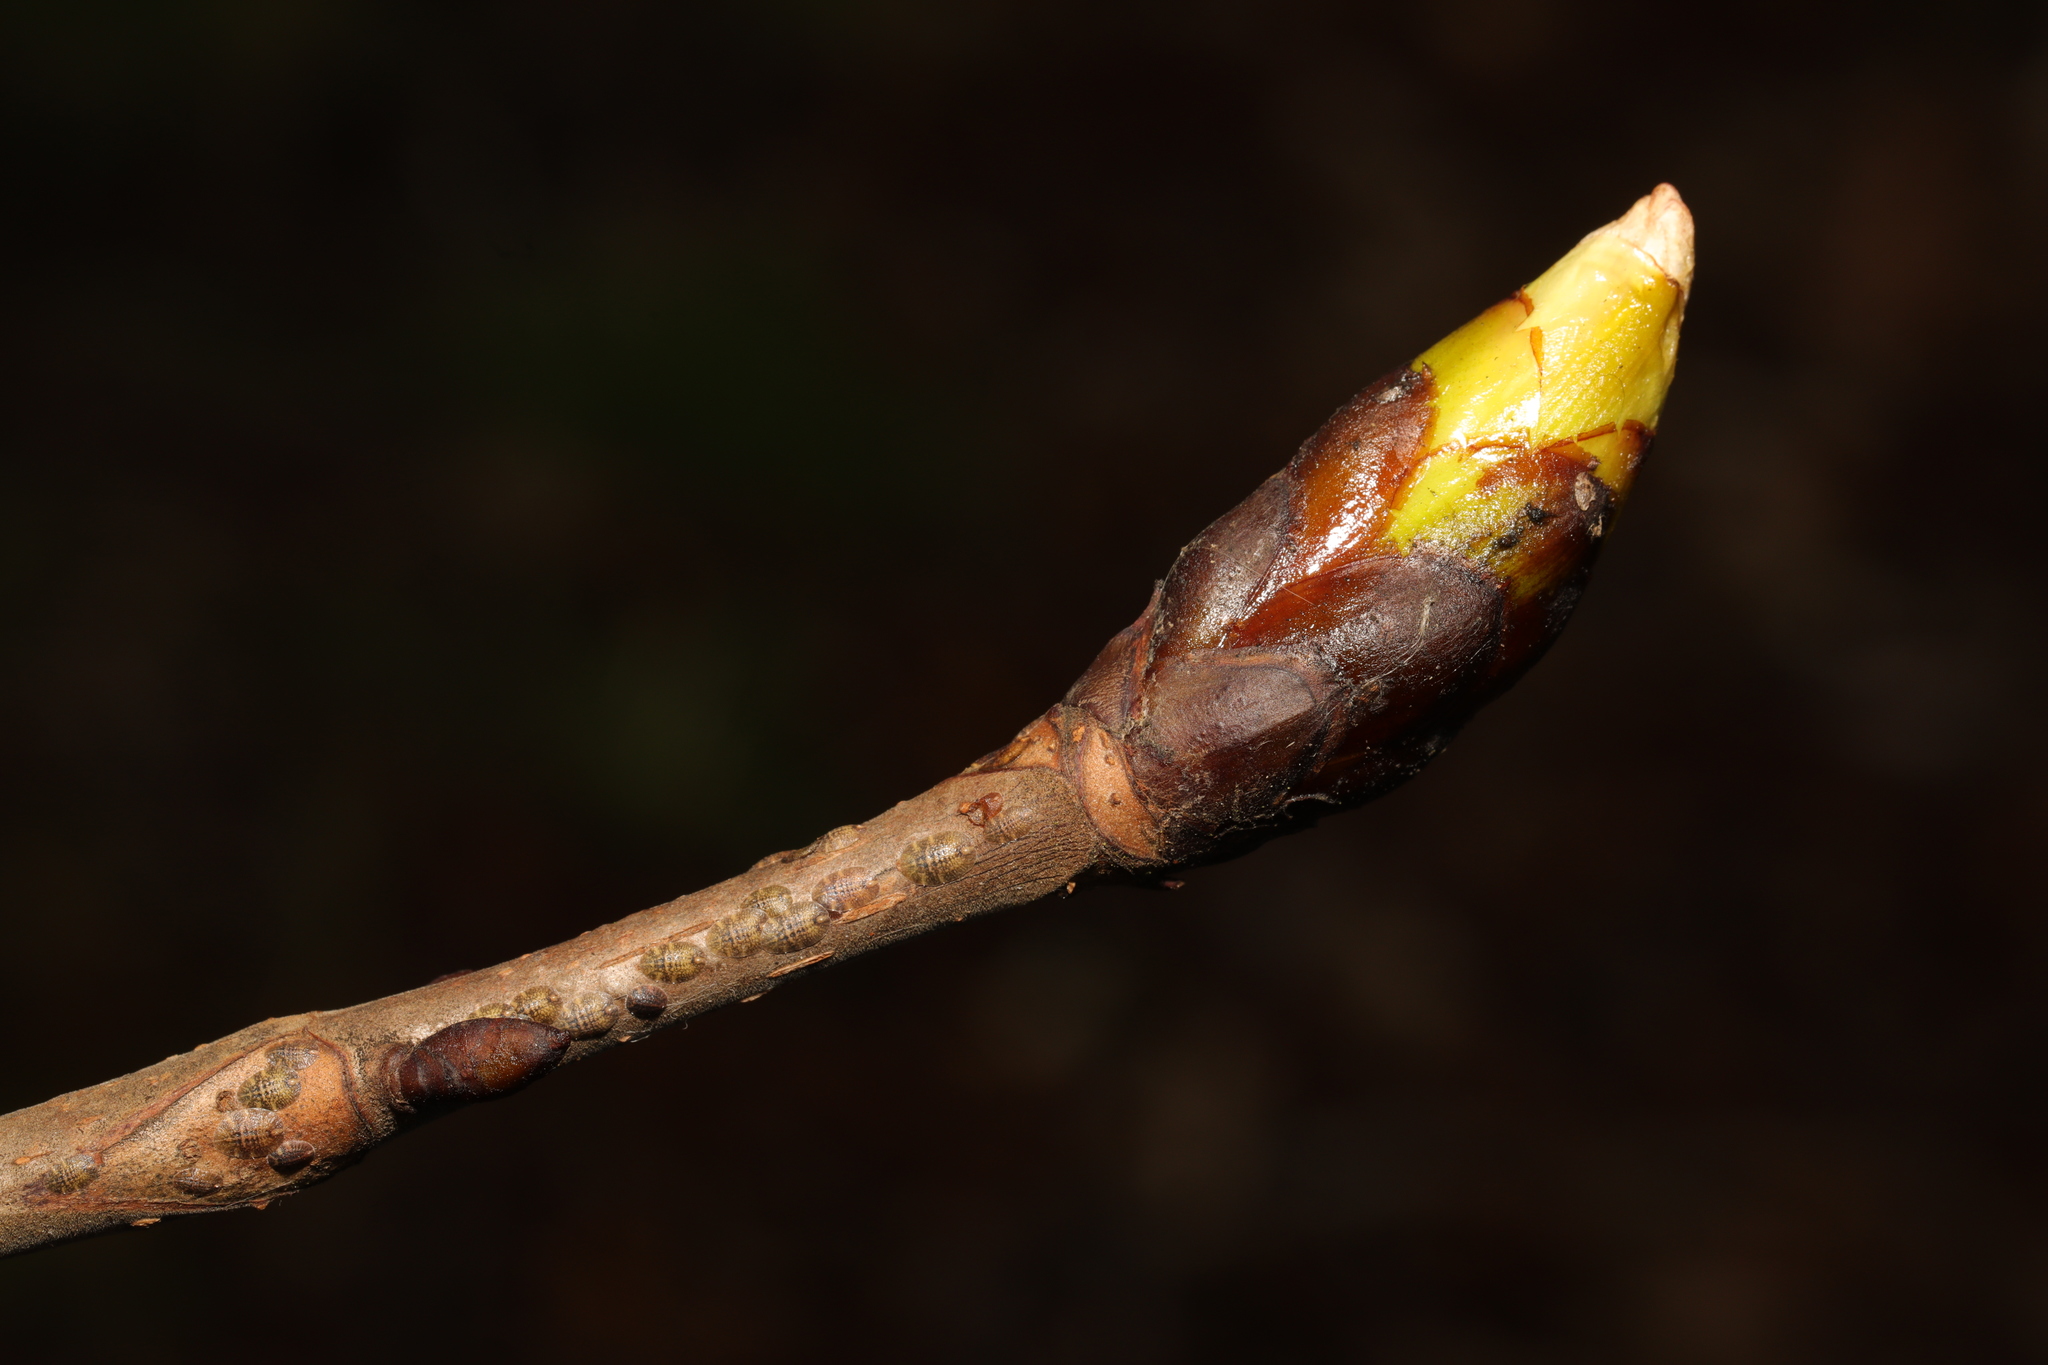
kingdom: Plantae
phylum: Tracheophyta
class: Magnoliopsida
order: Sapindales
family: Sapindaceae
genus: Aesculus
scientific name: Aesculus hippocastanum
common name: Horse-chestnut
